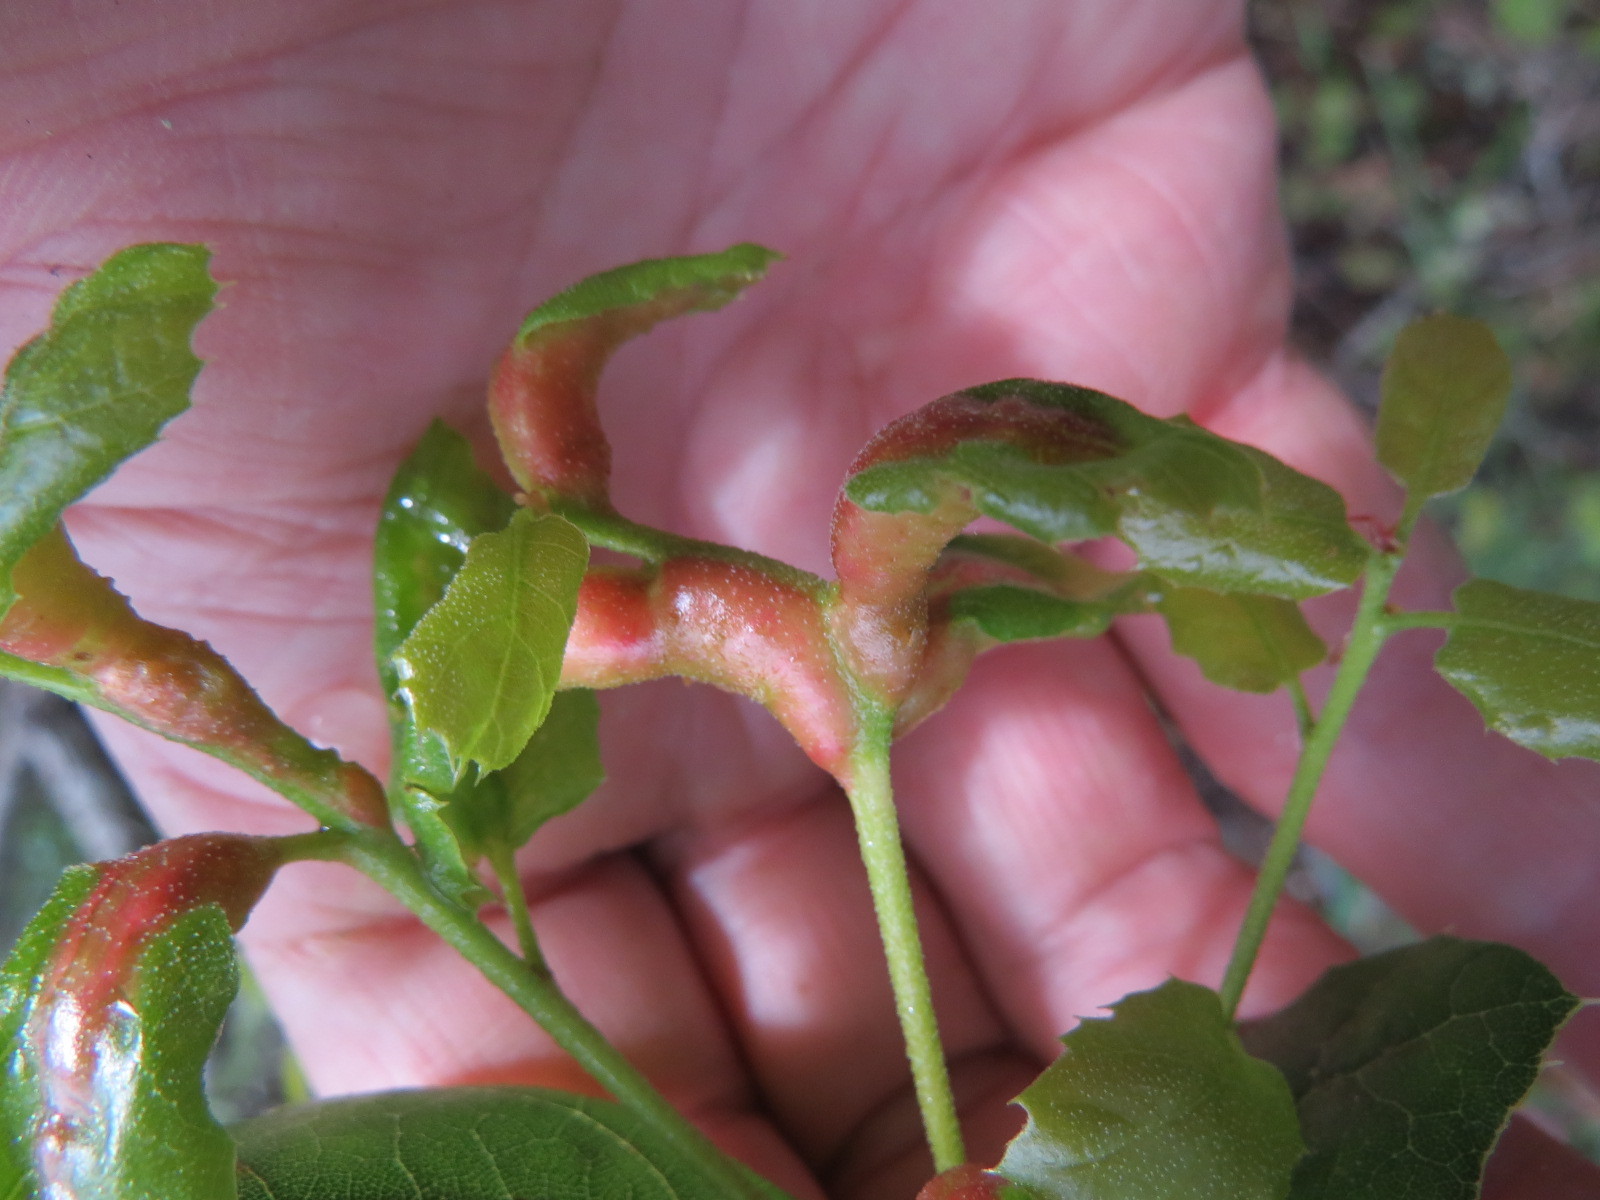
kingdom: Animalia
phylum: Arthropoda
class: Insecta
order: Hymenoptera
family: Cynipidae
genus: Melikaiella
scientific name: Melikaiella
